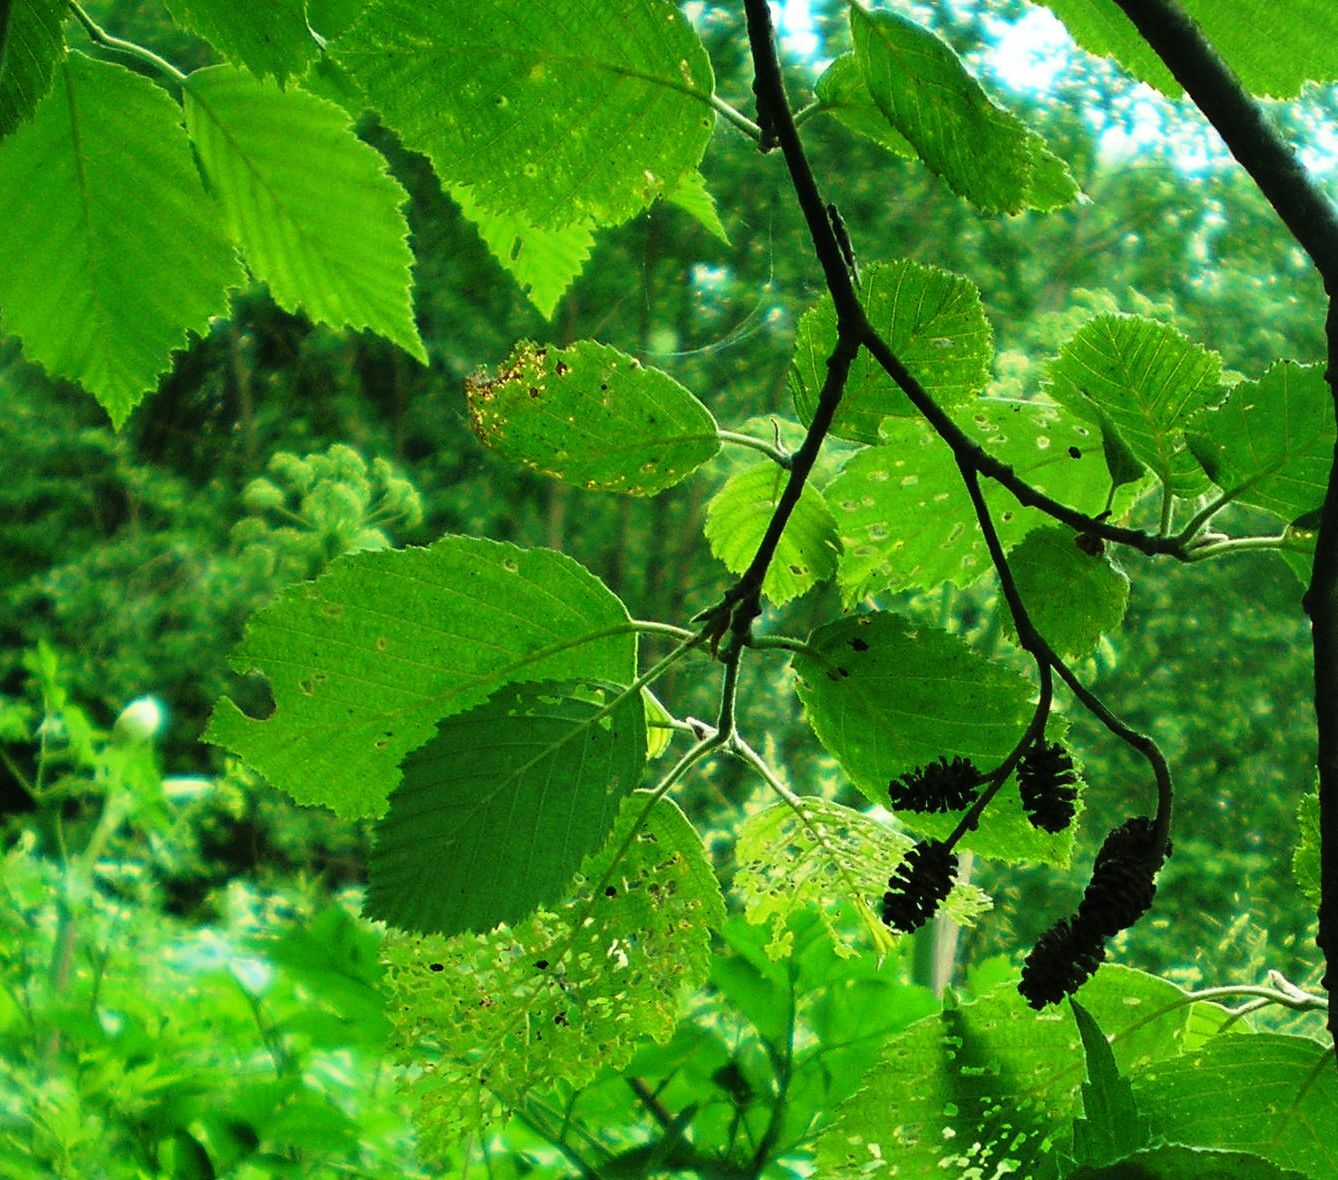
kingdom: Plantae
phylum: Tracheophyta
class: Magnoliopsida
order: Fagales
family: Betulaceae
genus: Alnus
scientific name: Alnus incana
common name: Grey alder
